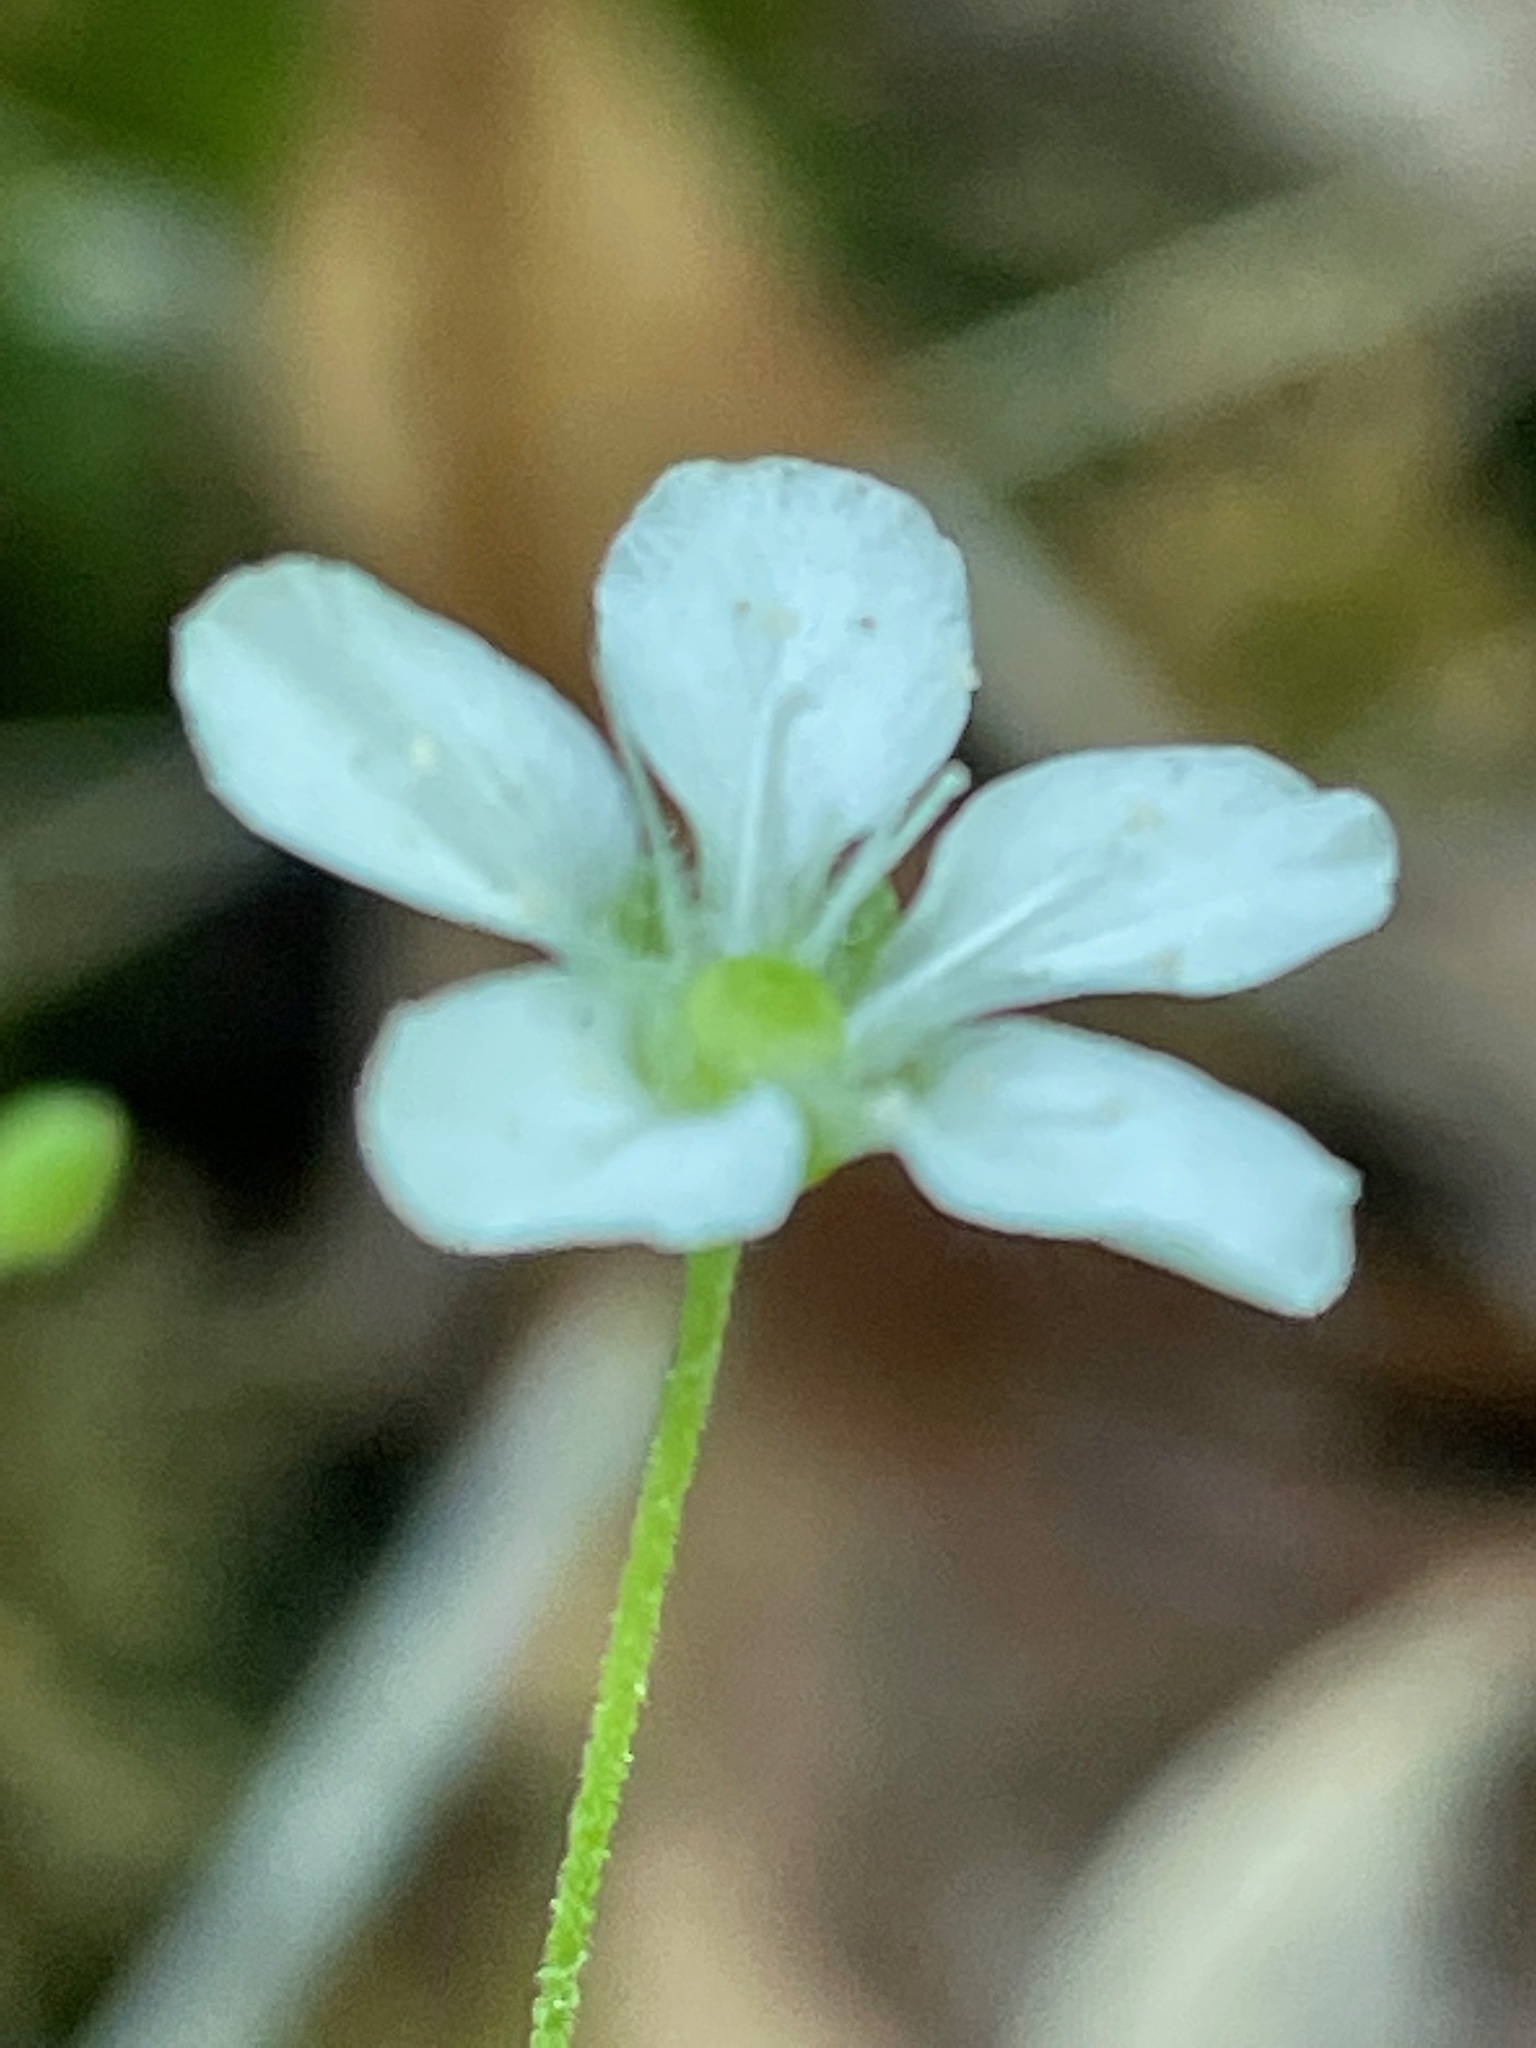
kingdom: Plantae
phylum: Tracheophyta
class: Magnoliopsida
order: Caryophyllales
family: Caryophyllaceae
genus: Moehringia
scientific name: Moehringia lateriflora
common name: Blunt-leaved sandwort
